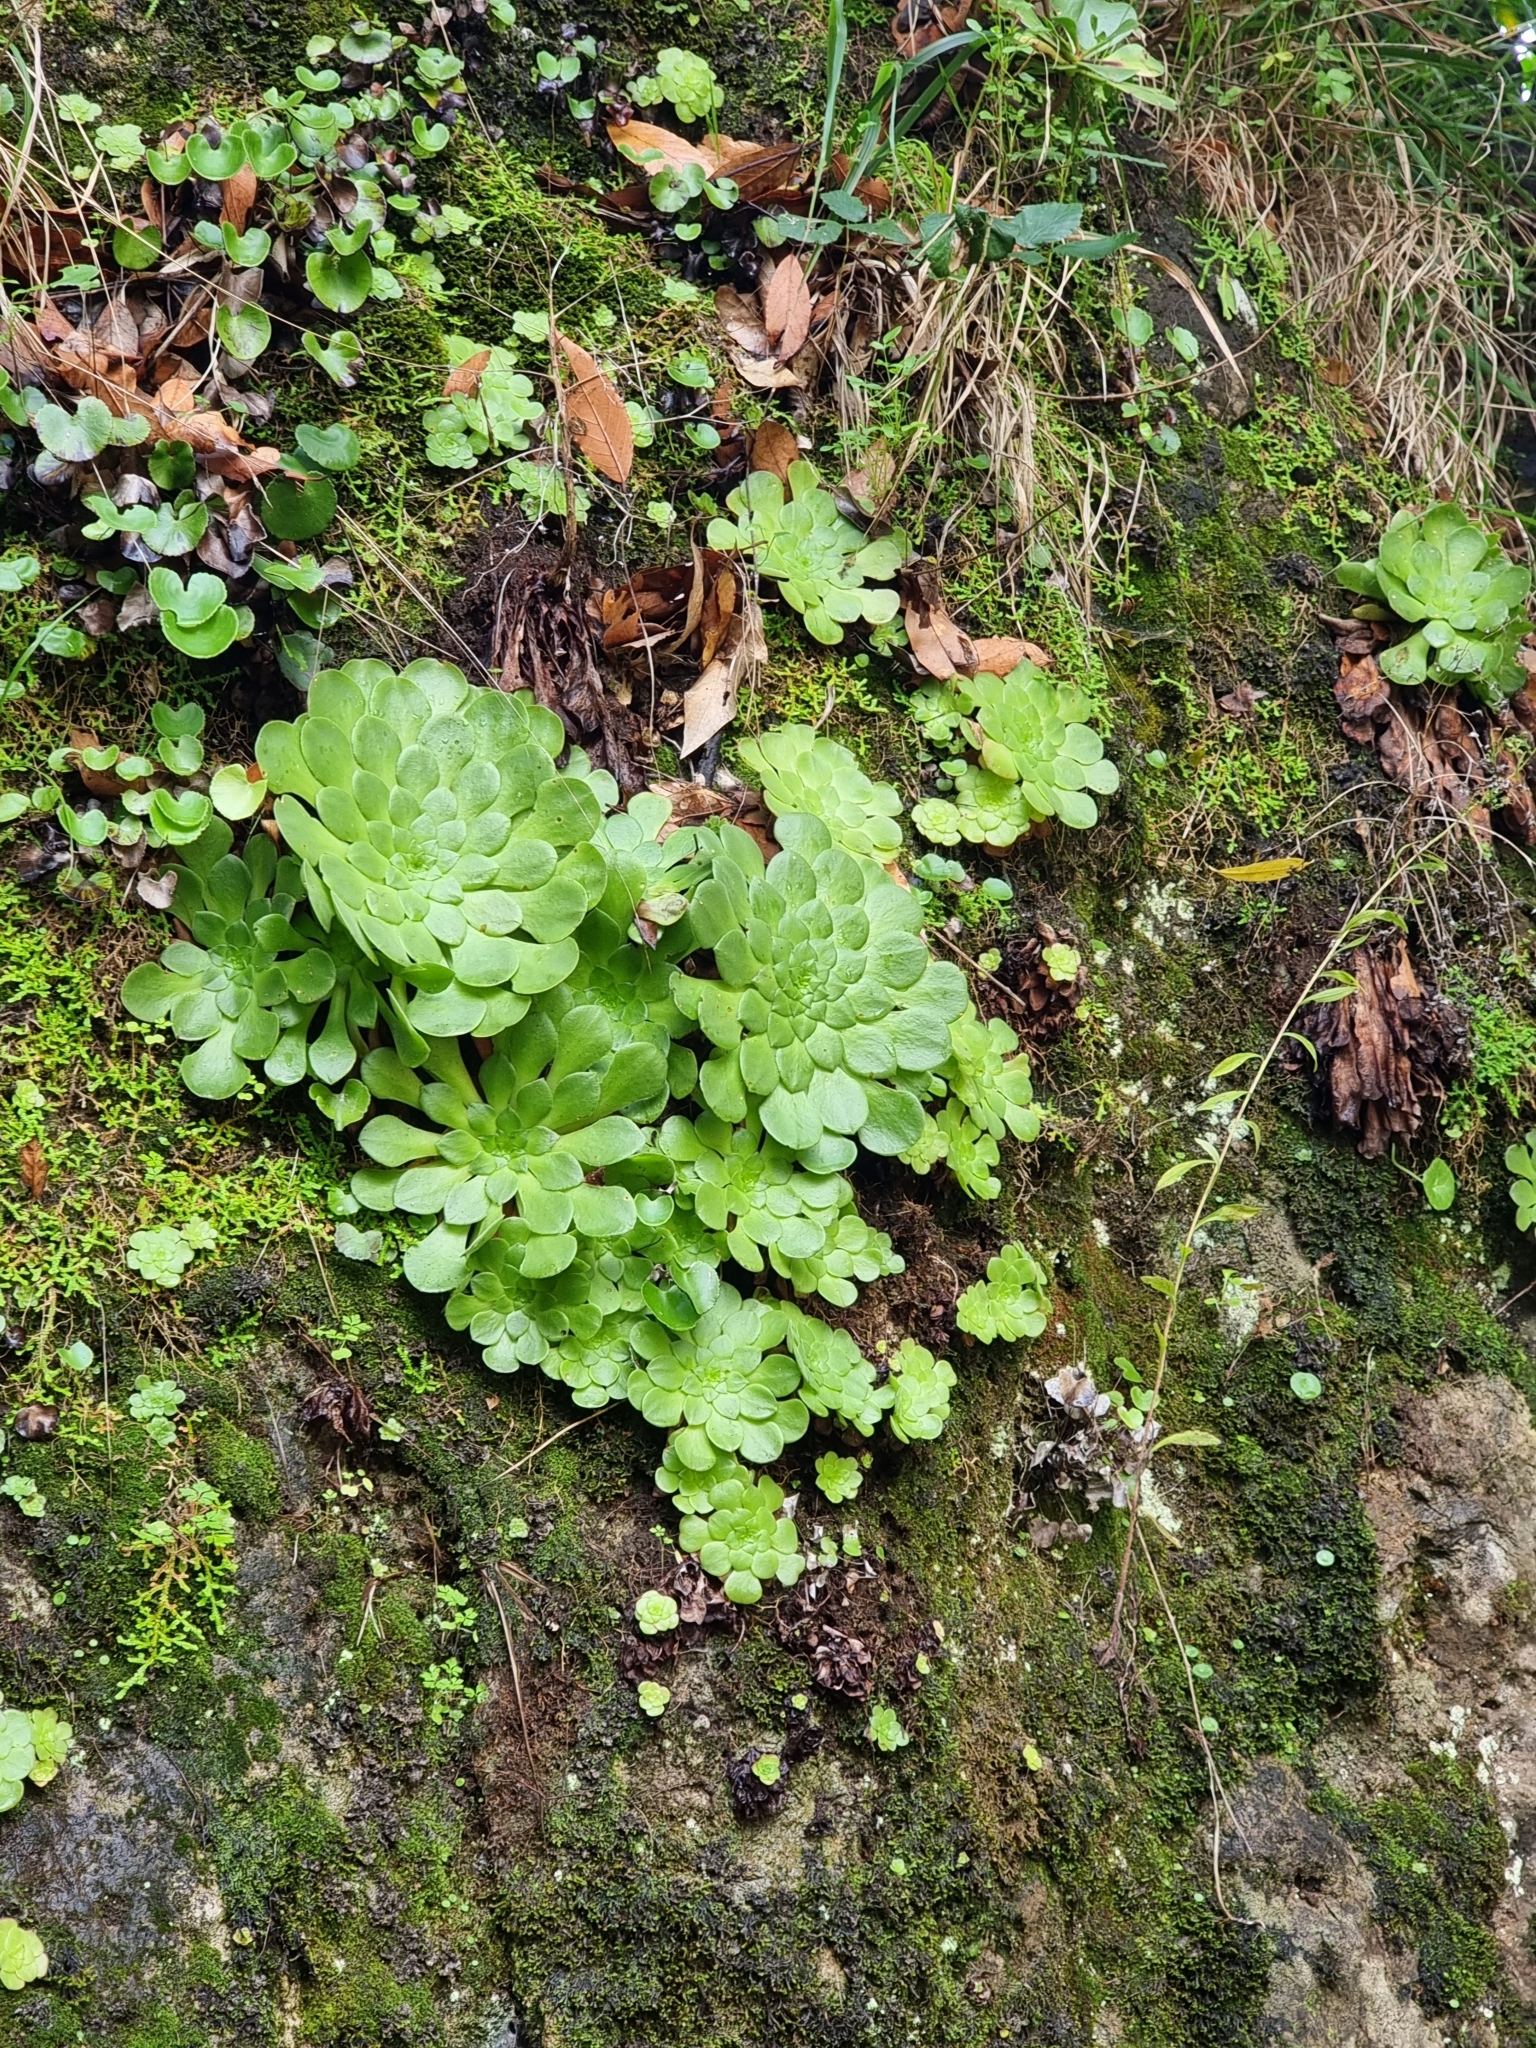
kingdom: Plantae
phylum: Tracheophyta
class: Magnoliopsida
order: Saxifragales
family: Crassulaceae
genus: Aeonium
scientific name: Aeonium glandulosum
